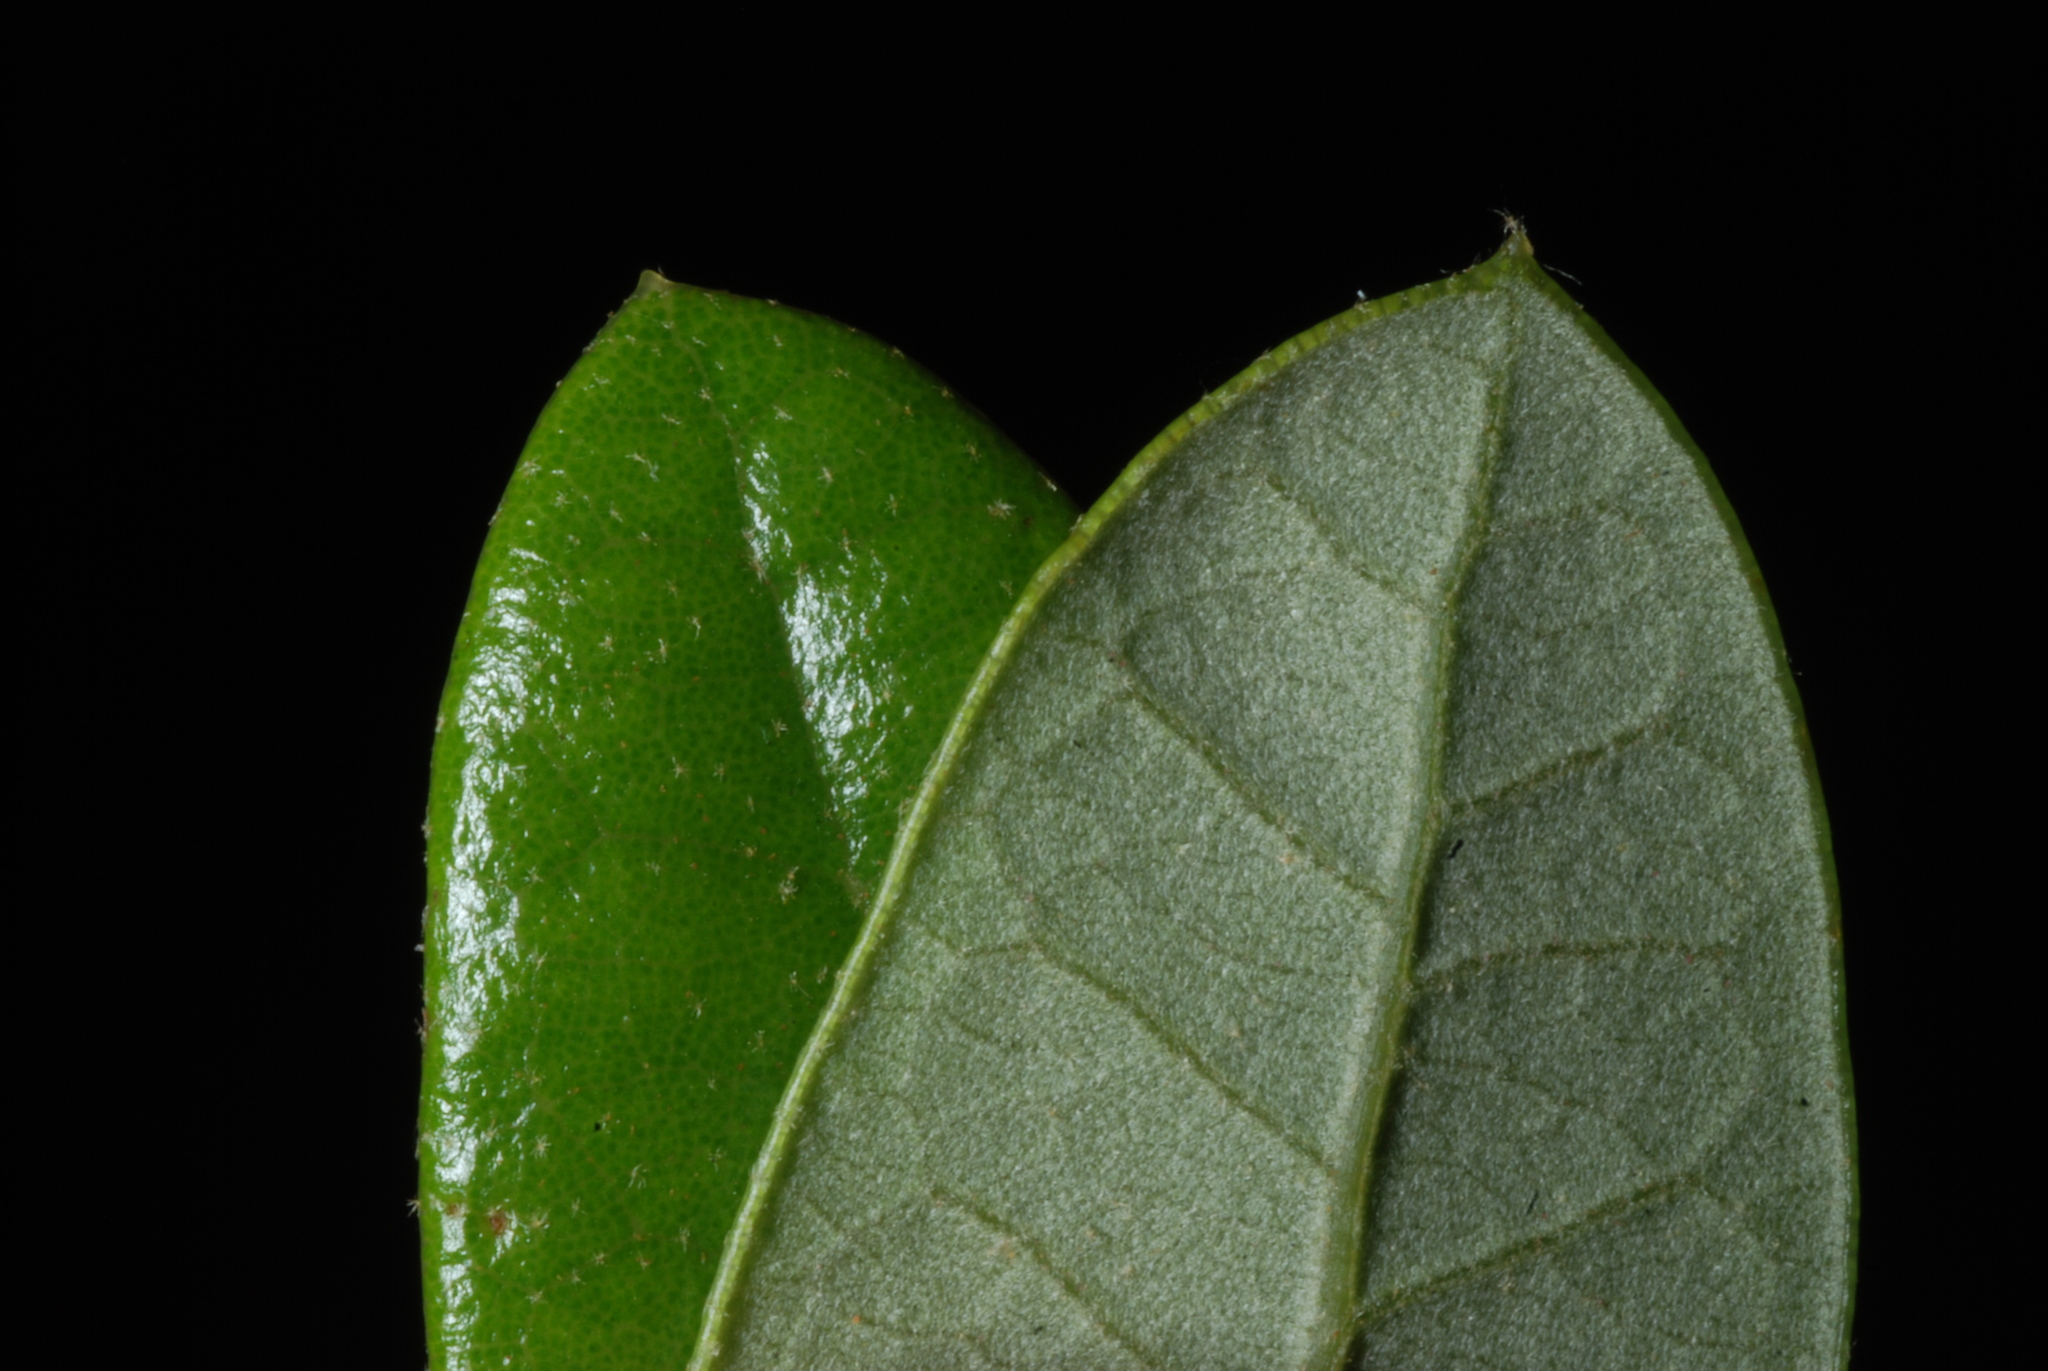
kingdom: Plantae
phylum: Tracheophyta
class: Magnoliopsida
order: Fagales
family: Fagaceae
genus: Quercus
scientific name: Quercus minima
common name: Dwarf live oak
